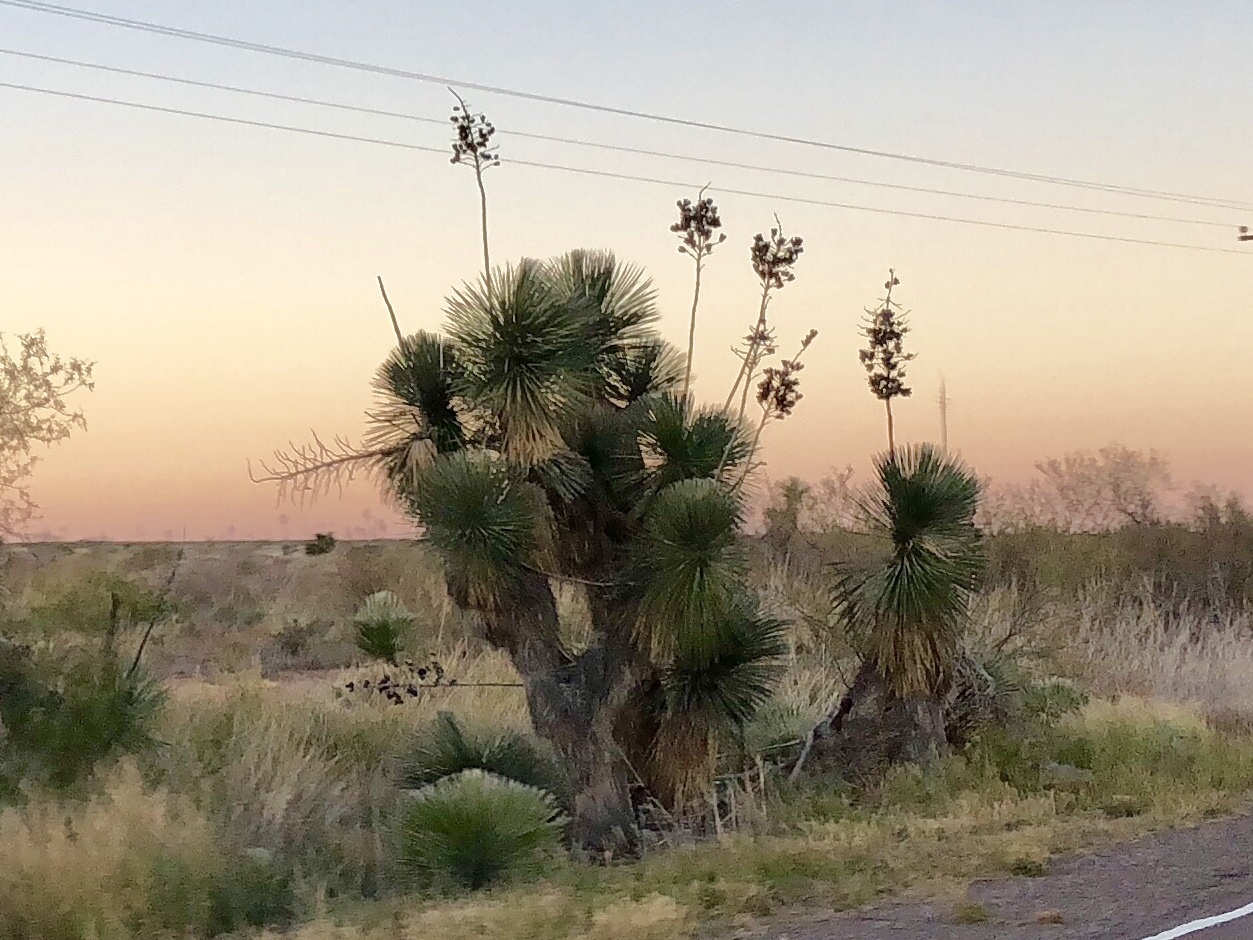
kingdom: Plantae
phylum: Tracheophyta
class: Liliopsida
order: Asparagales
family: Asparagaceae
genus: Yucca
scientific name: Yucca elata
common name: Palmella
